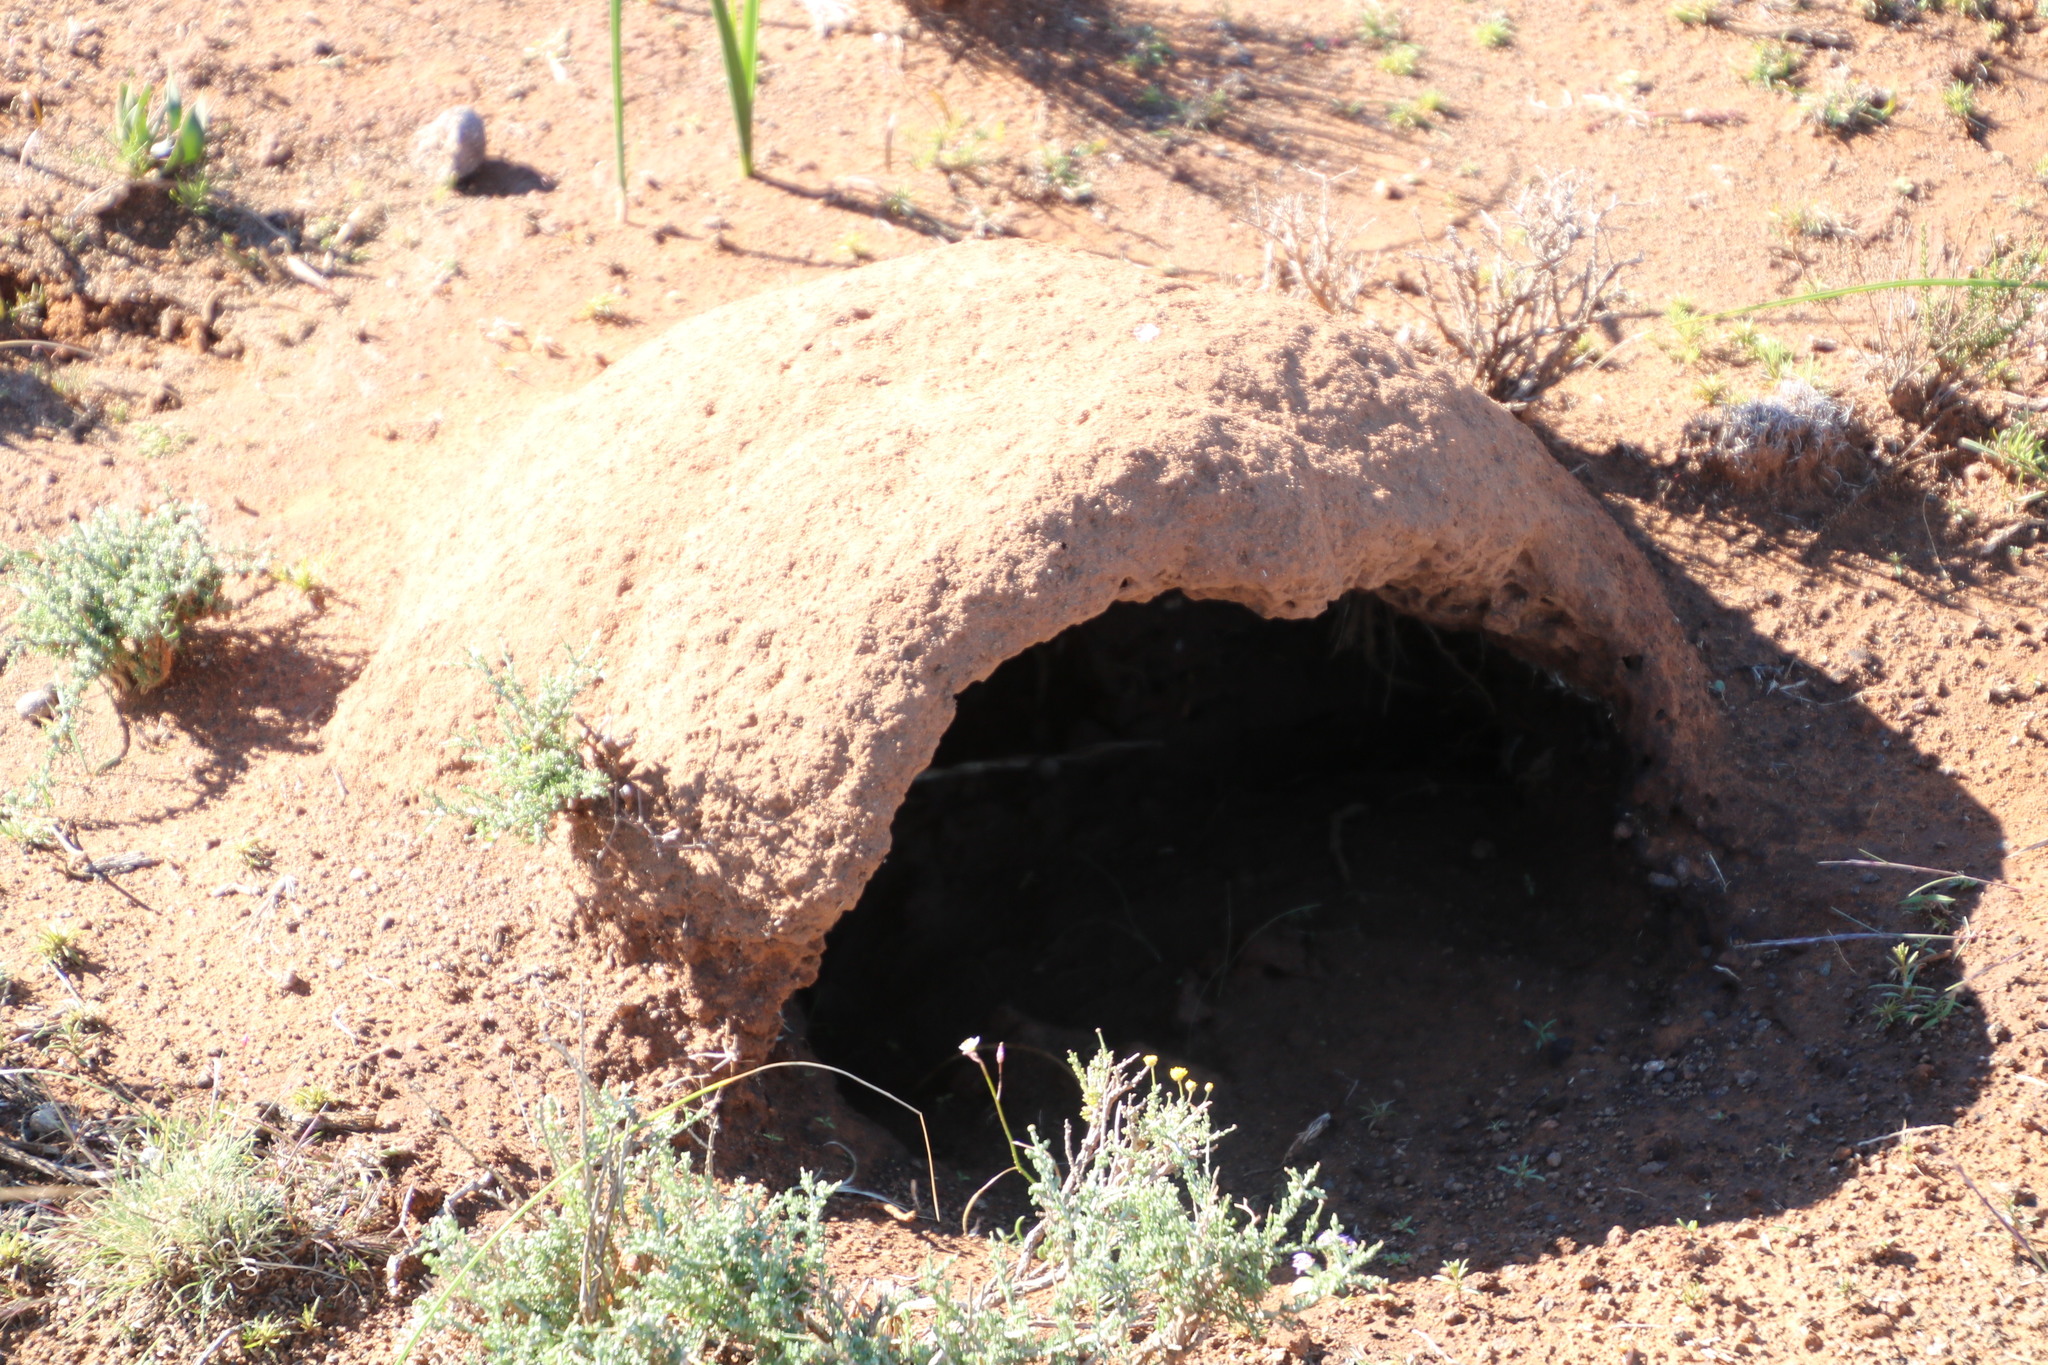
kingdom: Animalia
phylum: Chordata
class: Mammalia
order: Tubulidentata
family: Orycteropodidae
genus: Orycteropus
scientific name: Orycteropus afer
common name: Aardvark
